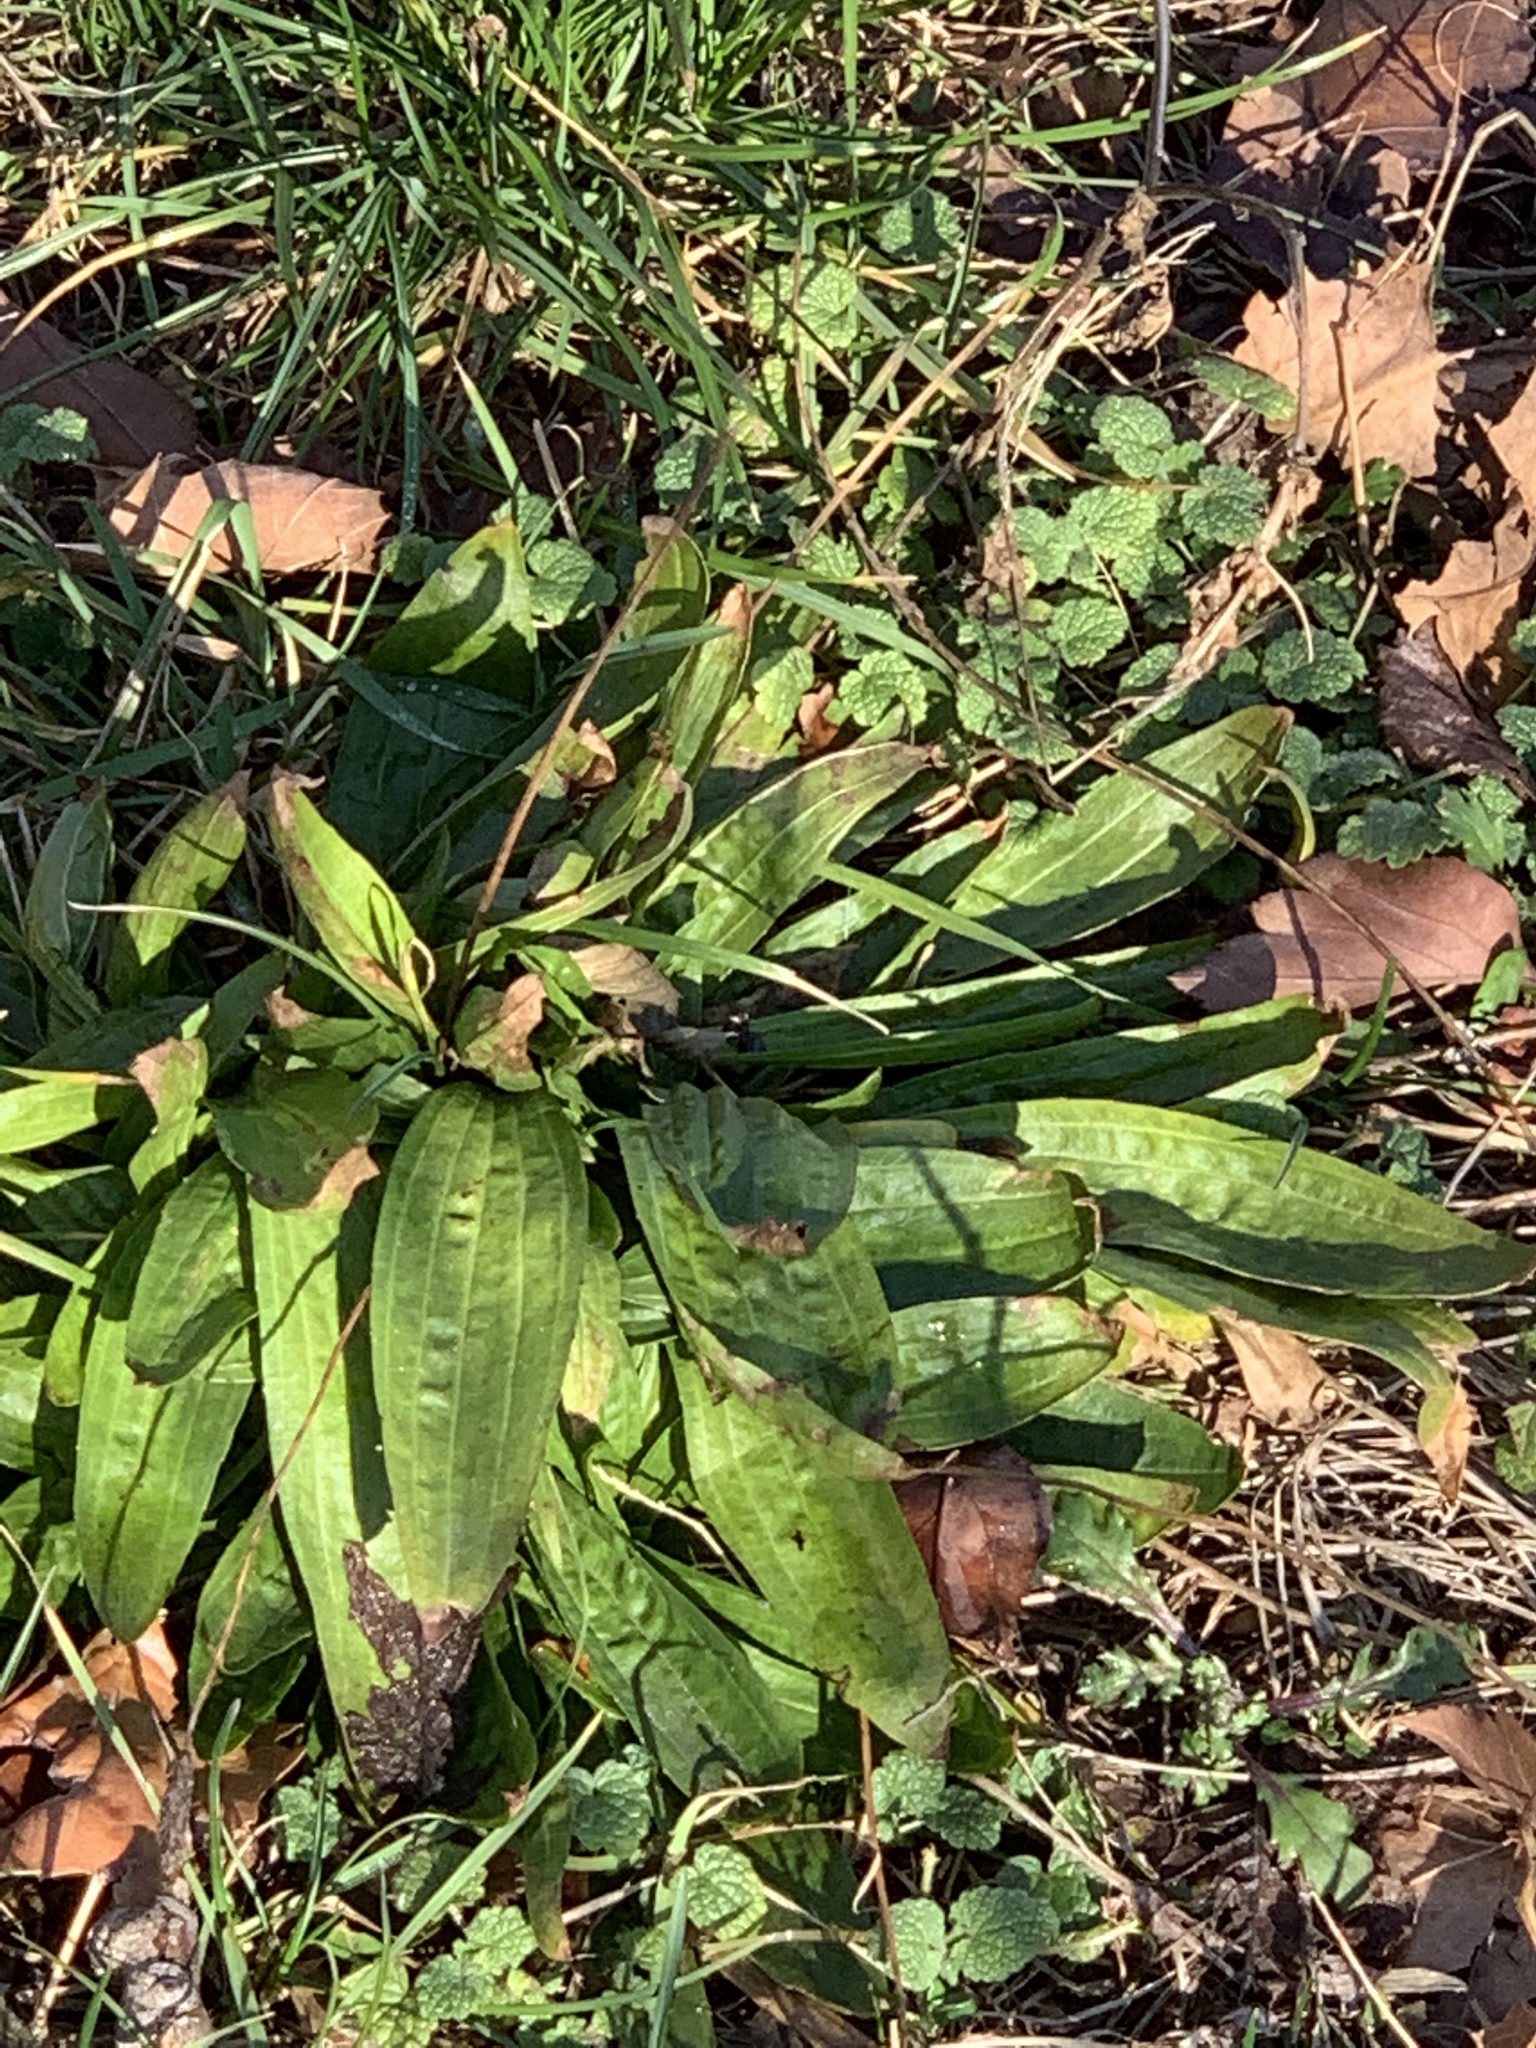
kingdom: Plantae
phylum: Tracheophyta
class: Magnoliopsida
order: Lamiales
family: Plantaginaceae
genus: Plantago
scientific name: Plantago lanceolata
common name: Ribwort plantain
